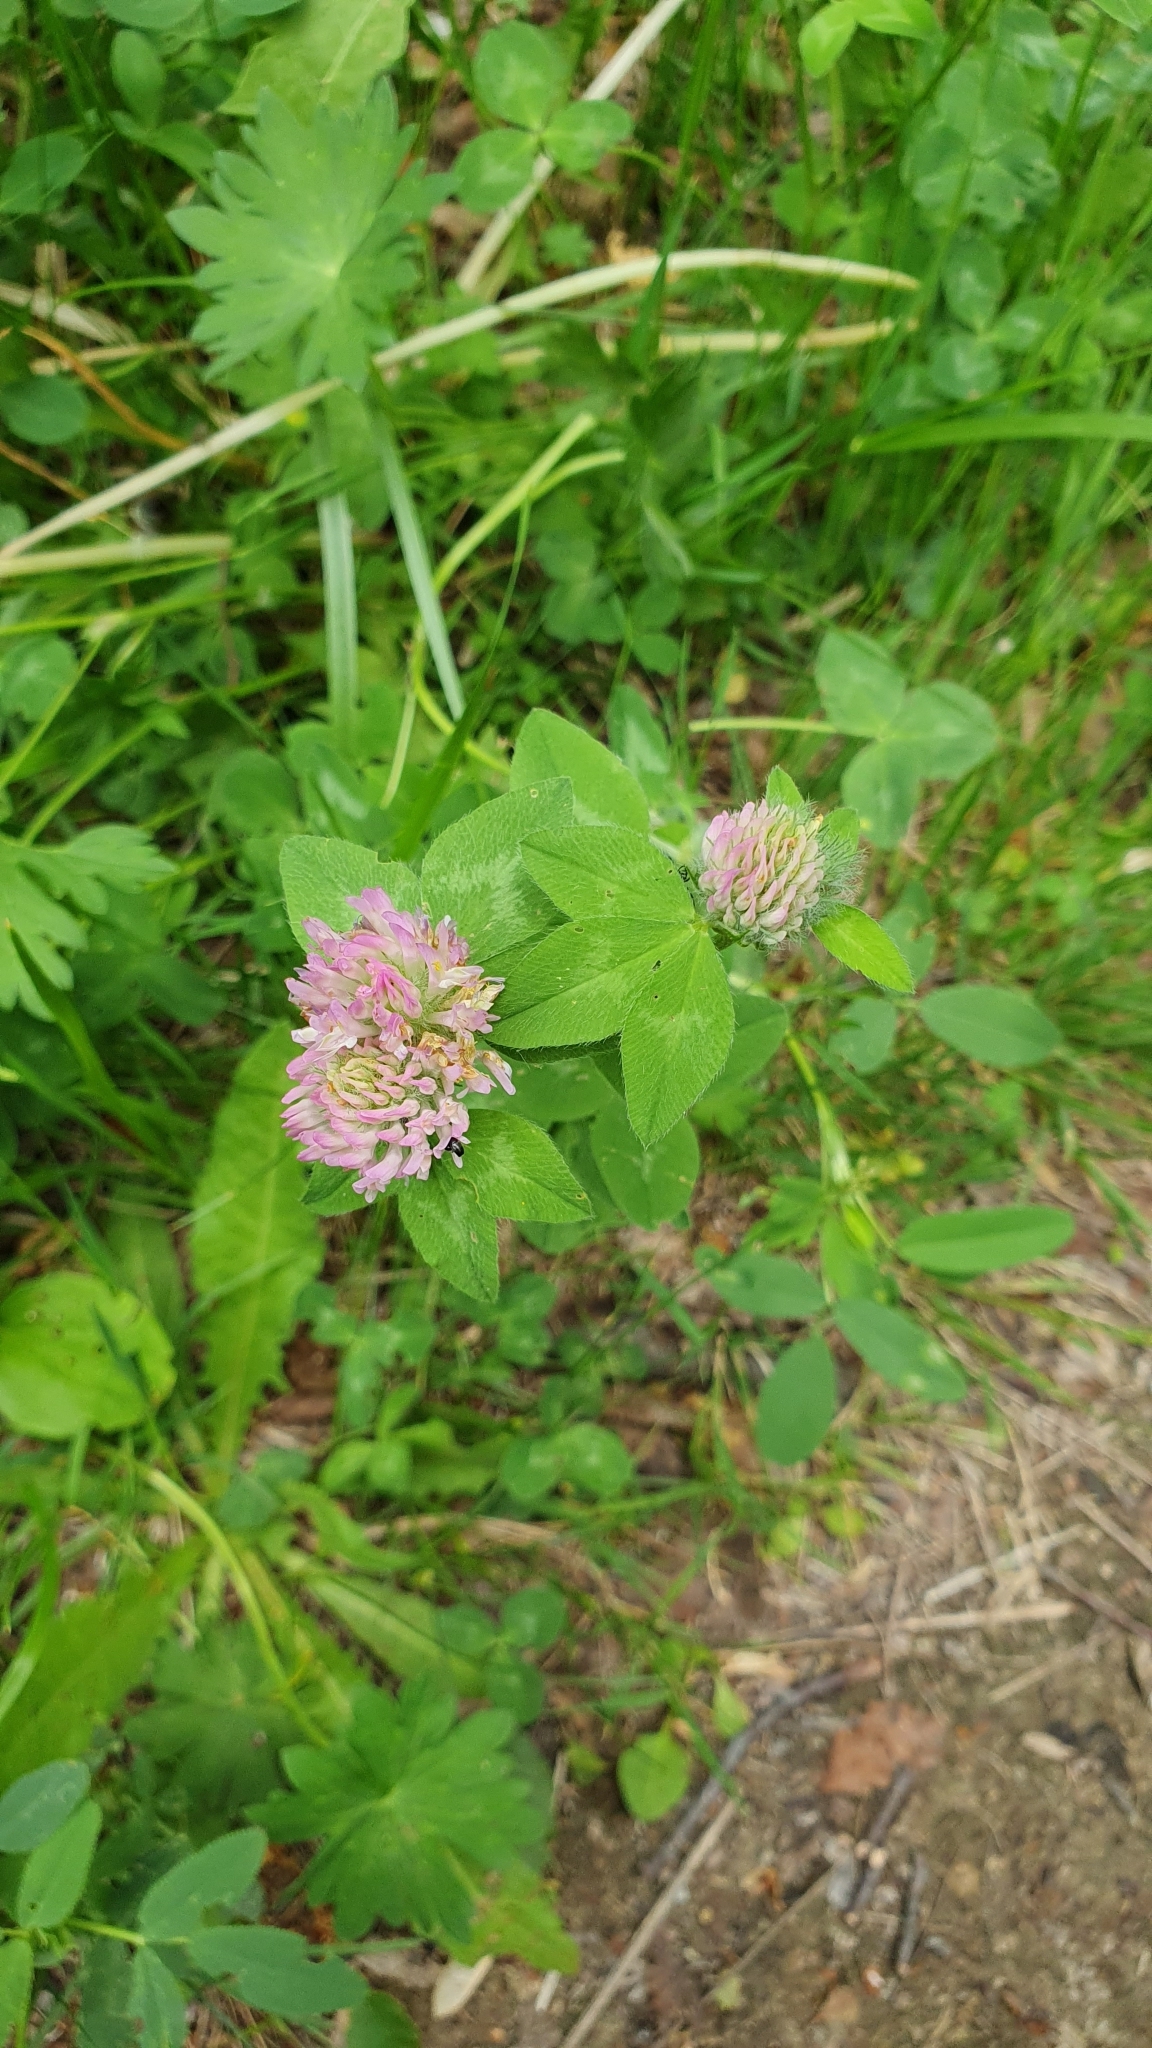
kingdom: Plantae
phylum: Tracheophyta
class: Magnoliopsida
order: Fabales
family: Fabaceae
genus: Trifolium
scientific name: Trifolium pratense
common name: Red clover
